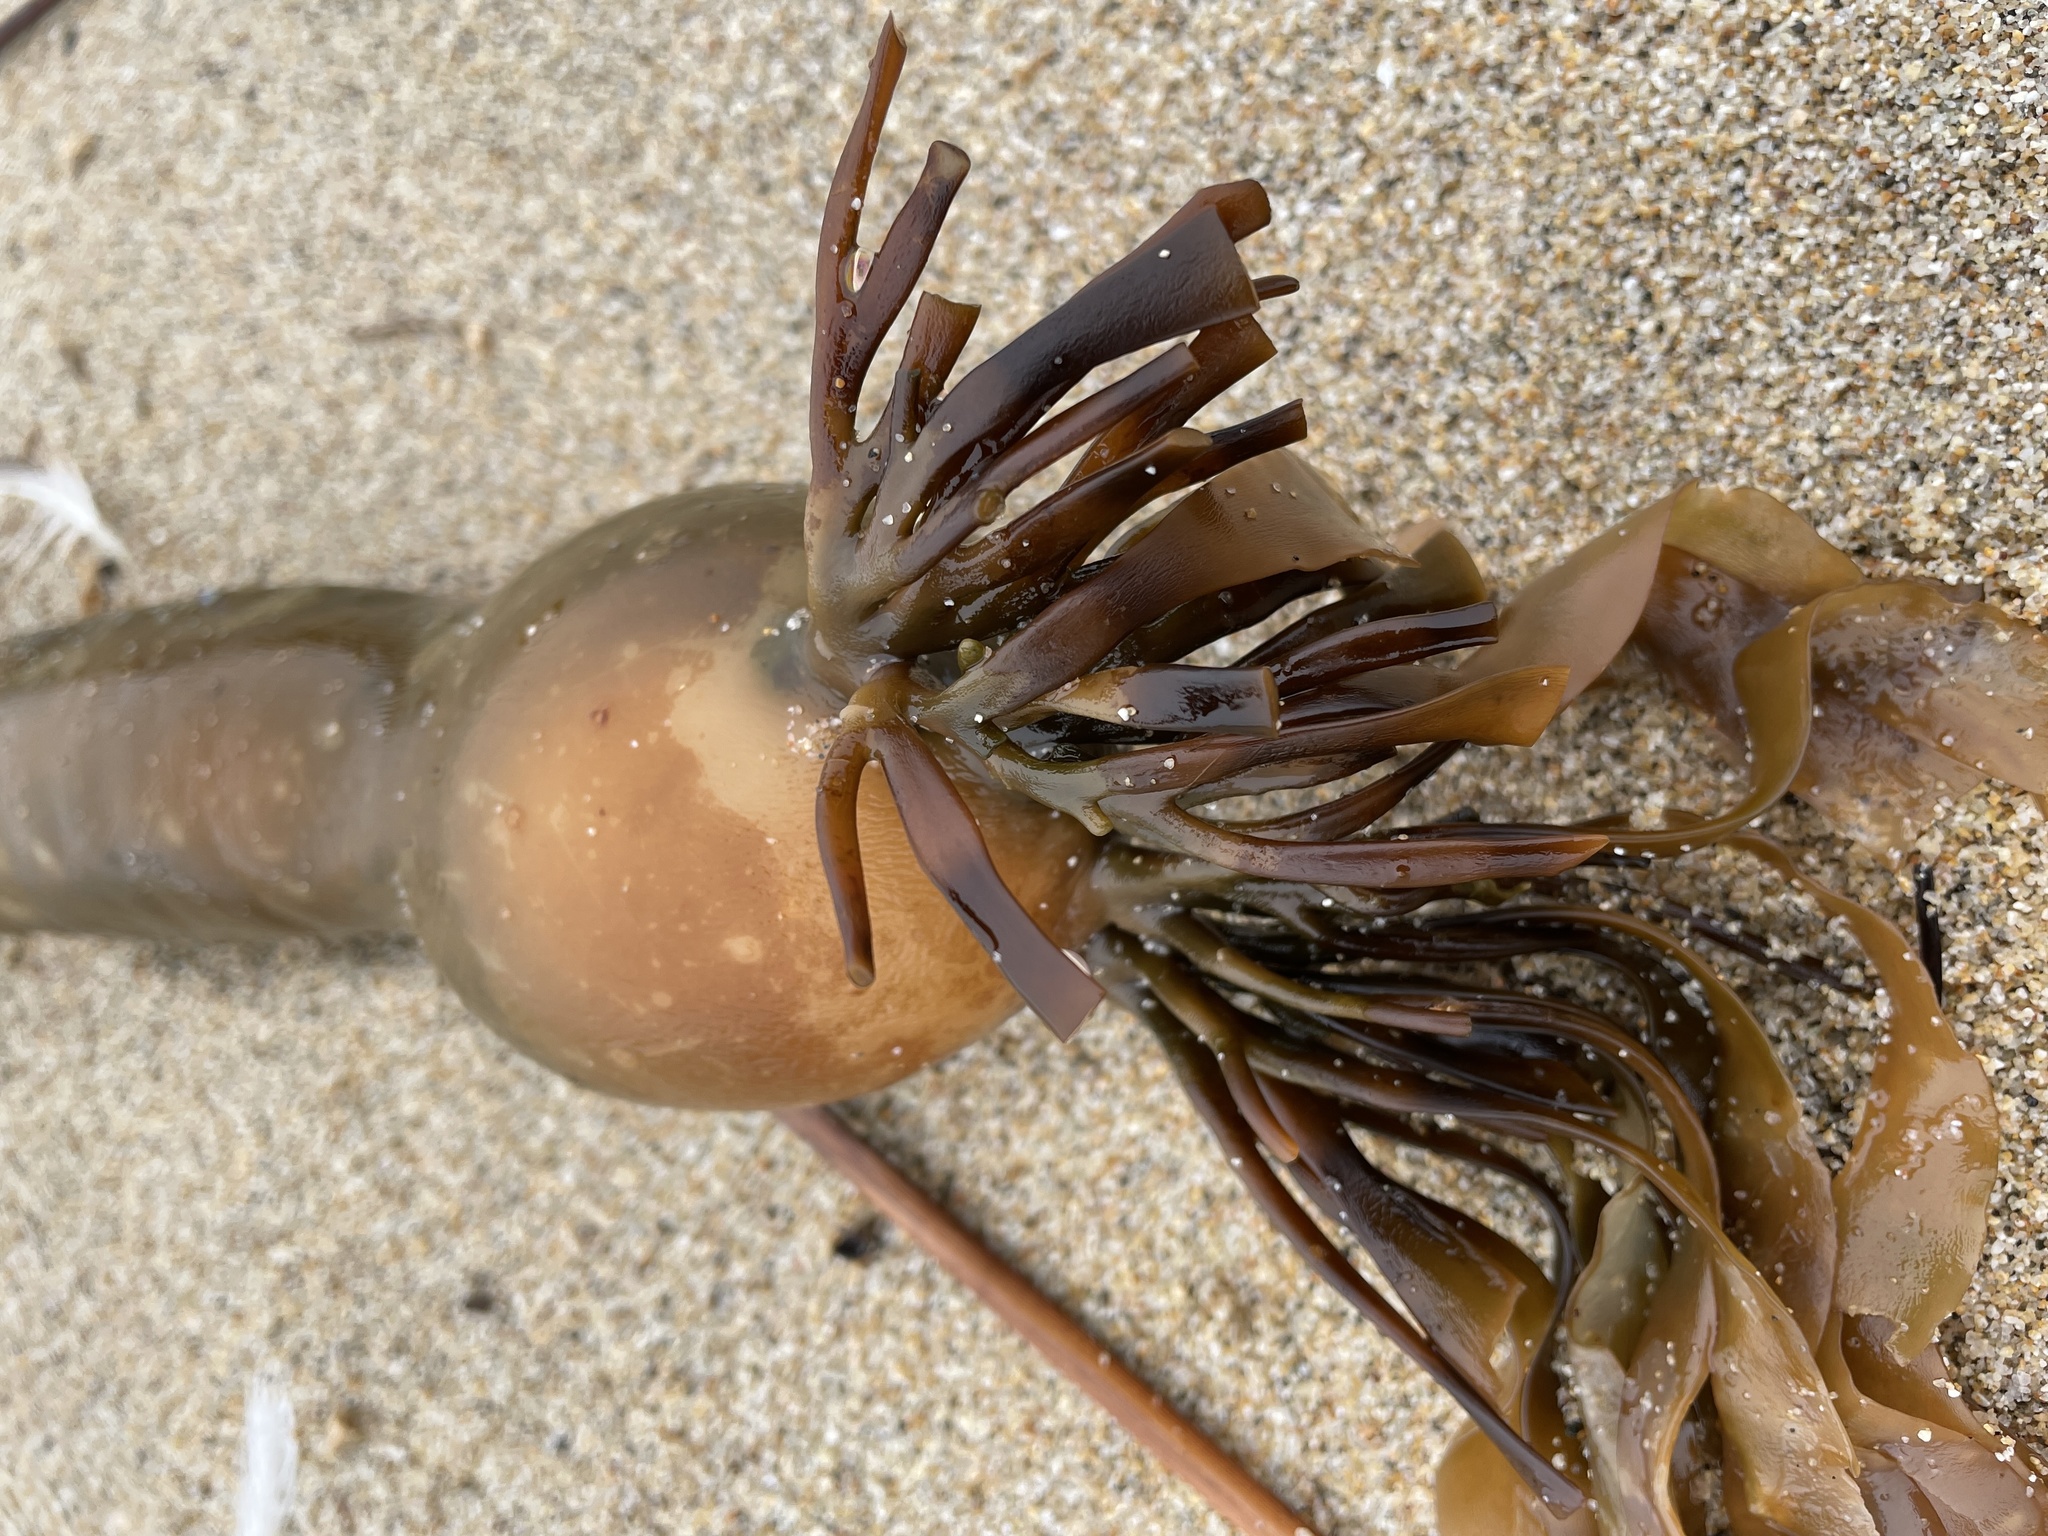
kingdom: Chromista
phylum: Ochrophyta
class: Phaeophyceae
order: Laminariales
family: Laminariaceae
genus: Macrocystis
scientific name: Macrocystis pyrifera
